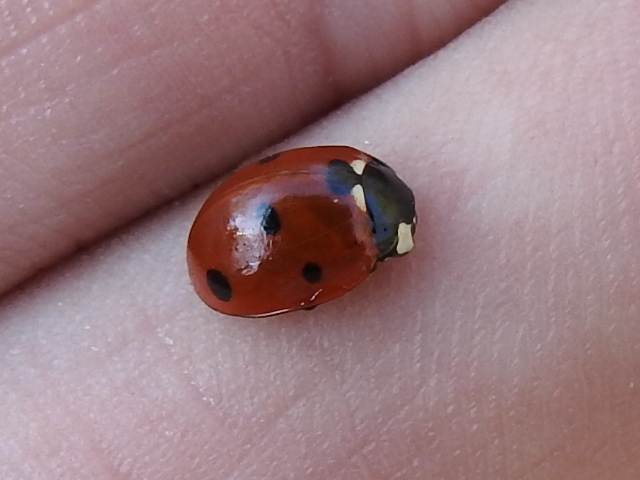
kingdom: Animalia
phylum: Arthropoda
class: Insecta
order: Coleoptera
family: Coccinellidae
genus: Coccinella
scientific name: Coccinella septempunctata
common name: Sevenspotted lady beetle
